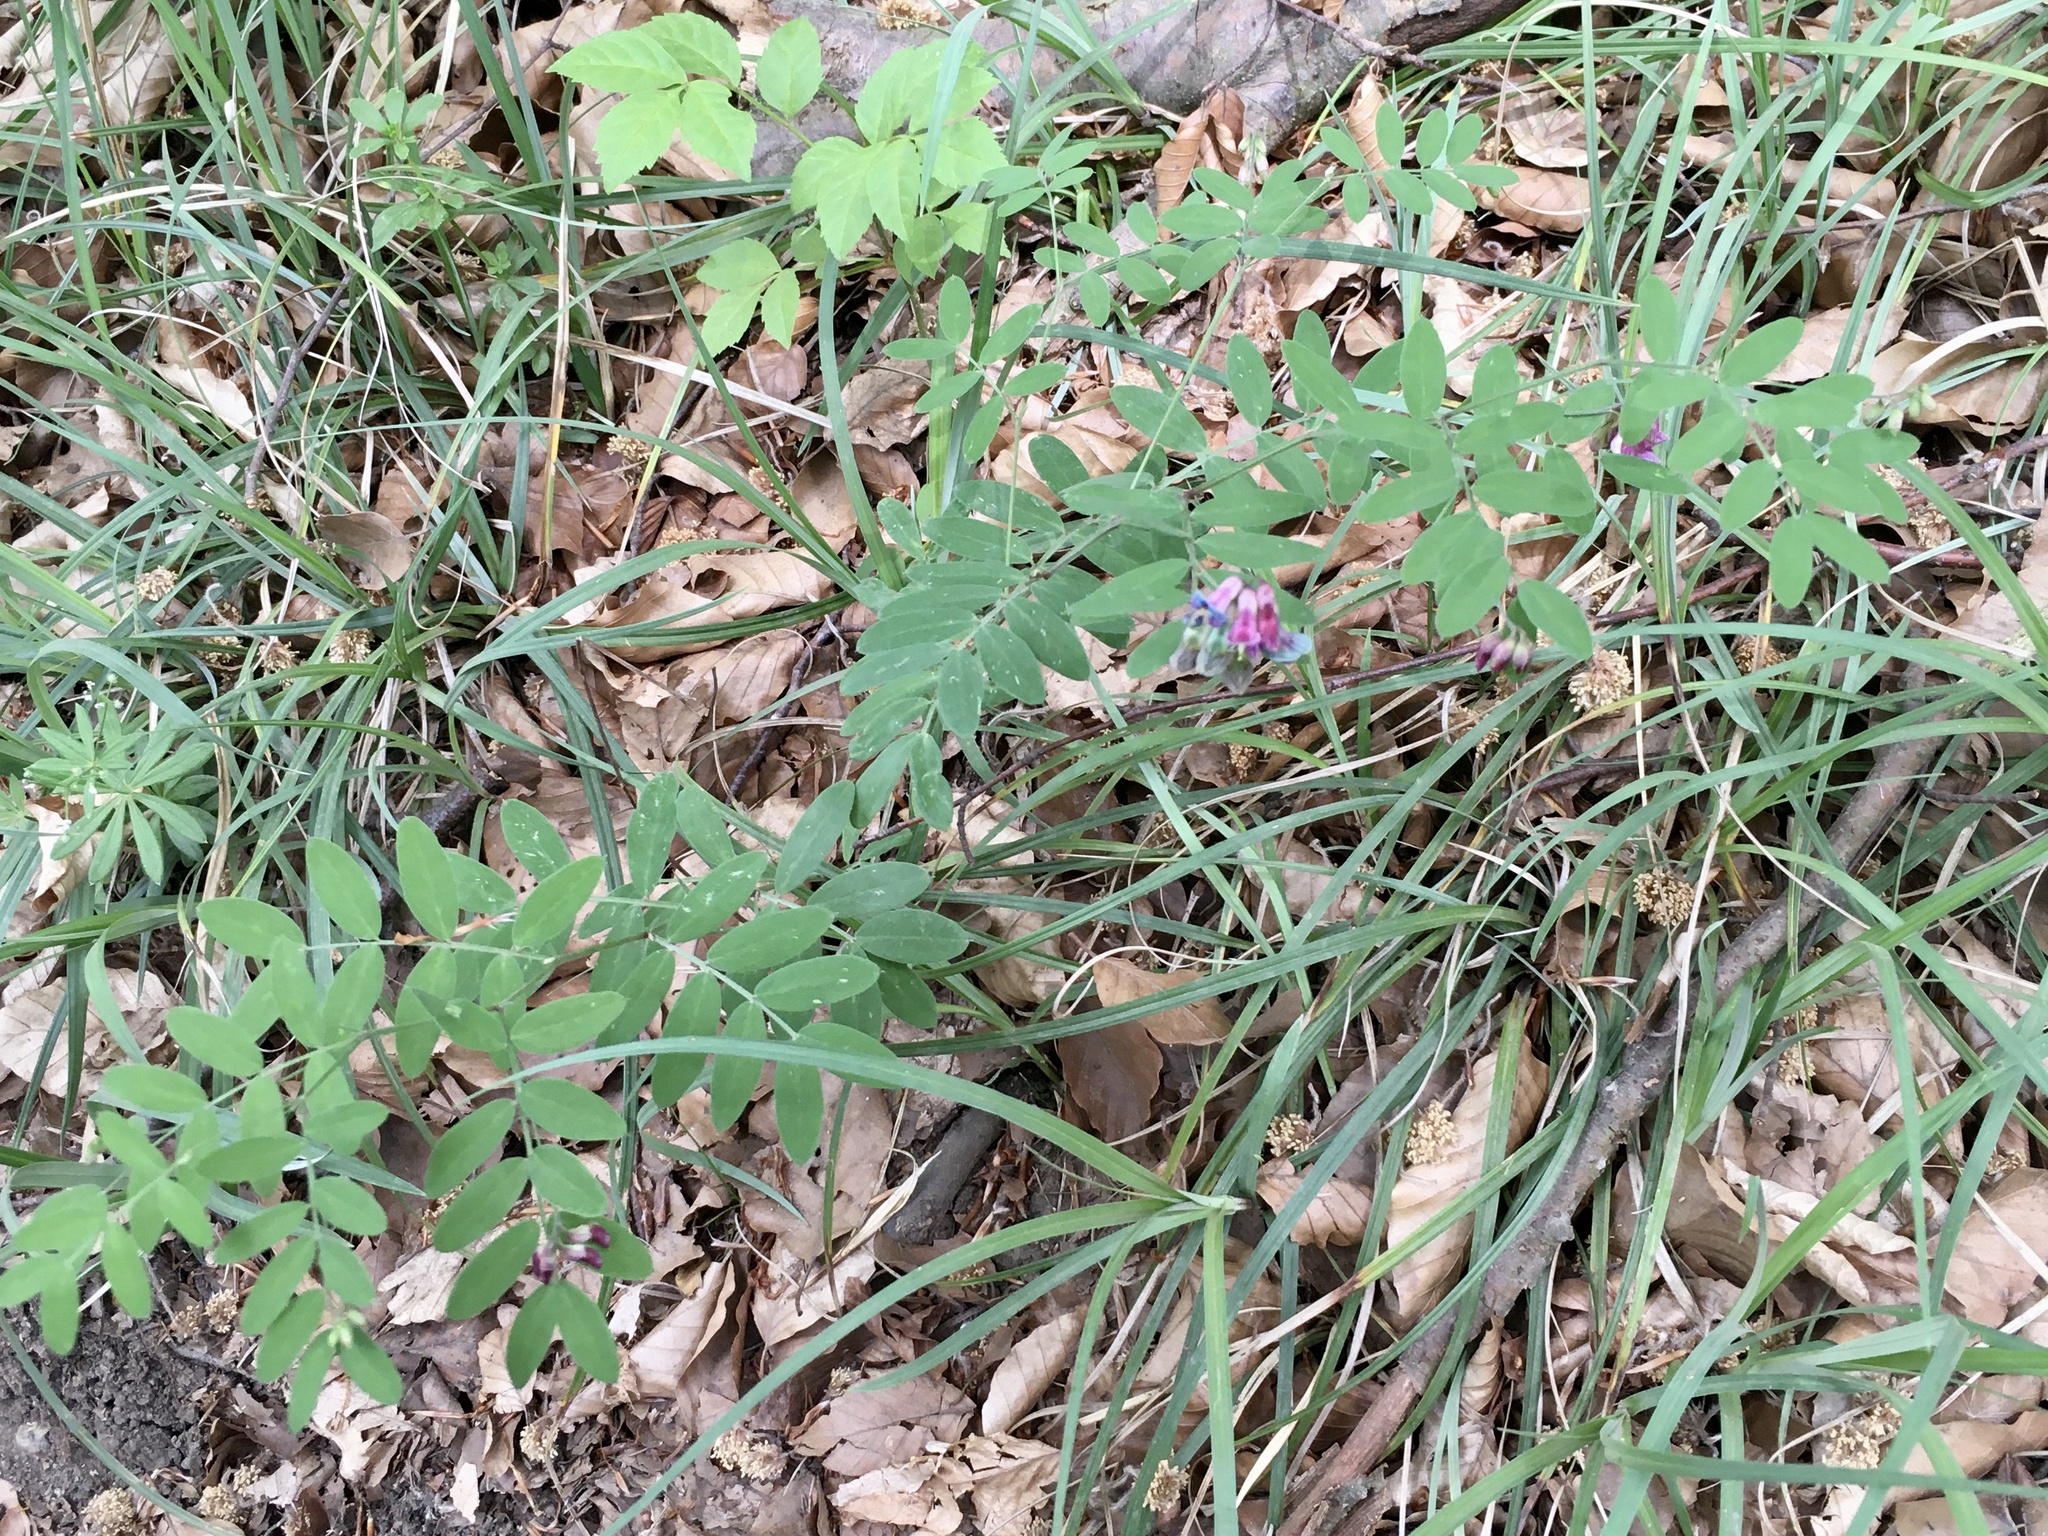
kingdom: Plantae
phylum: Tracheophyta
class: Magnoliopsida
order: Fabales
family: Fabaceae
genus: Lathyrus
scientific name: Lathyrus vernus
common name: Spring pea
